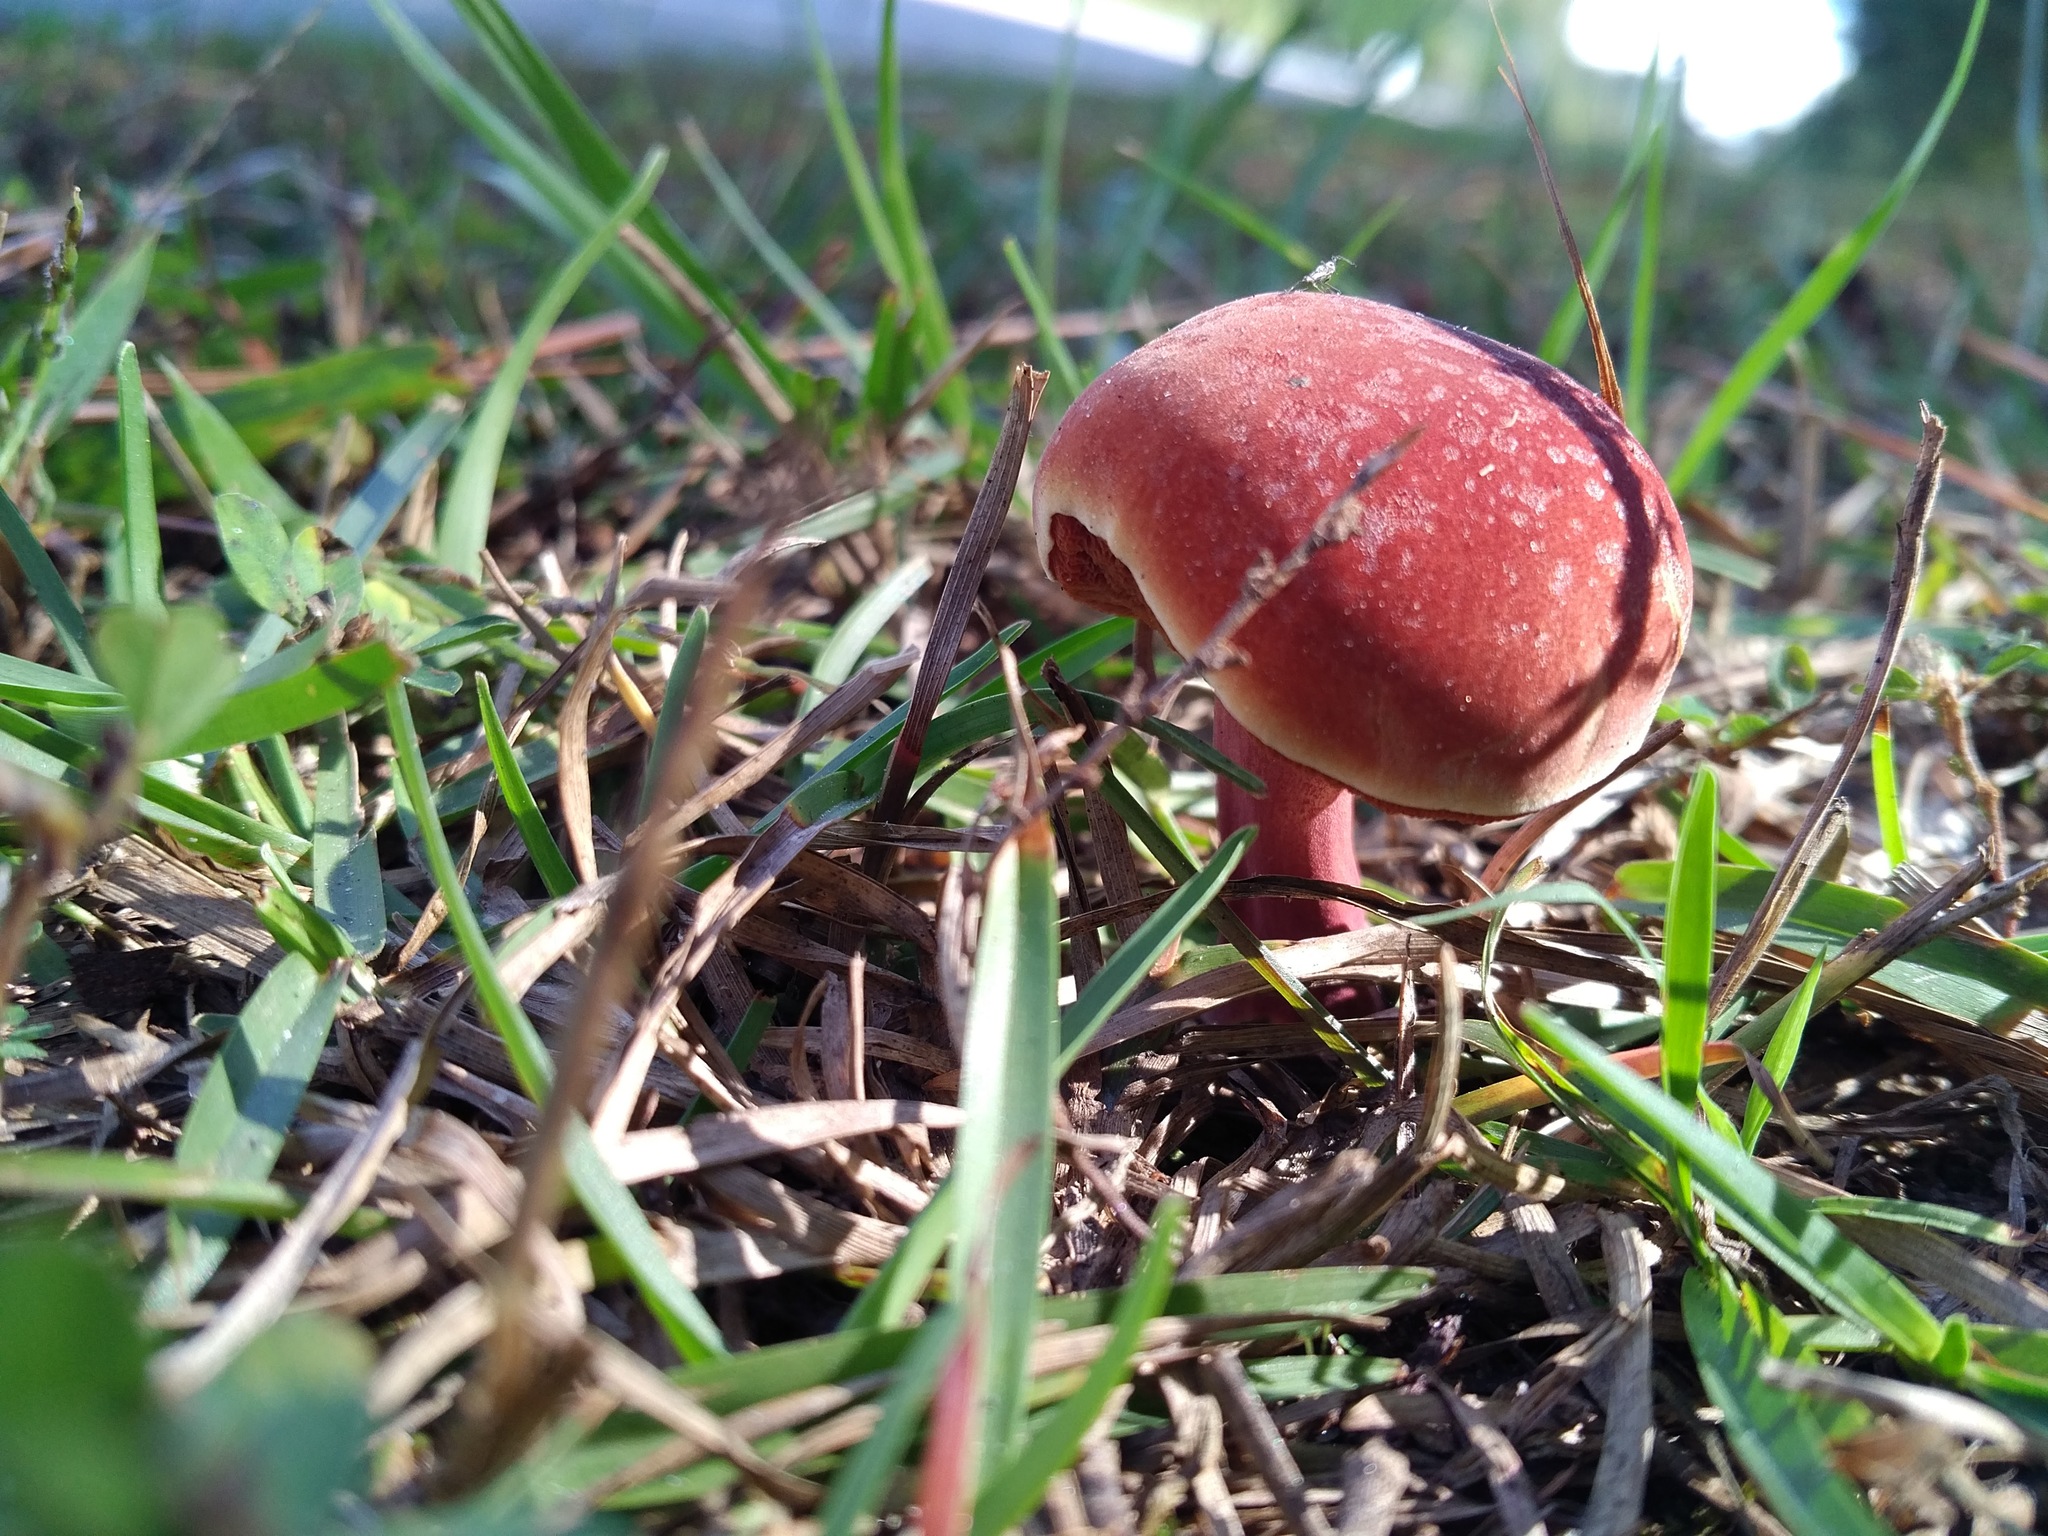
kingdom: Fungi
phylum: Basidiomycota
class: Agaricomycetes
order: Boletales
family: Boletaceae
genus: Chalciporus
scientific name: Chalciporus rubinellus
